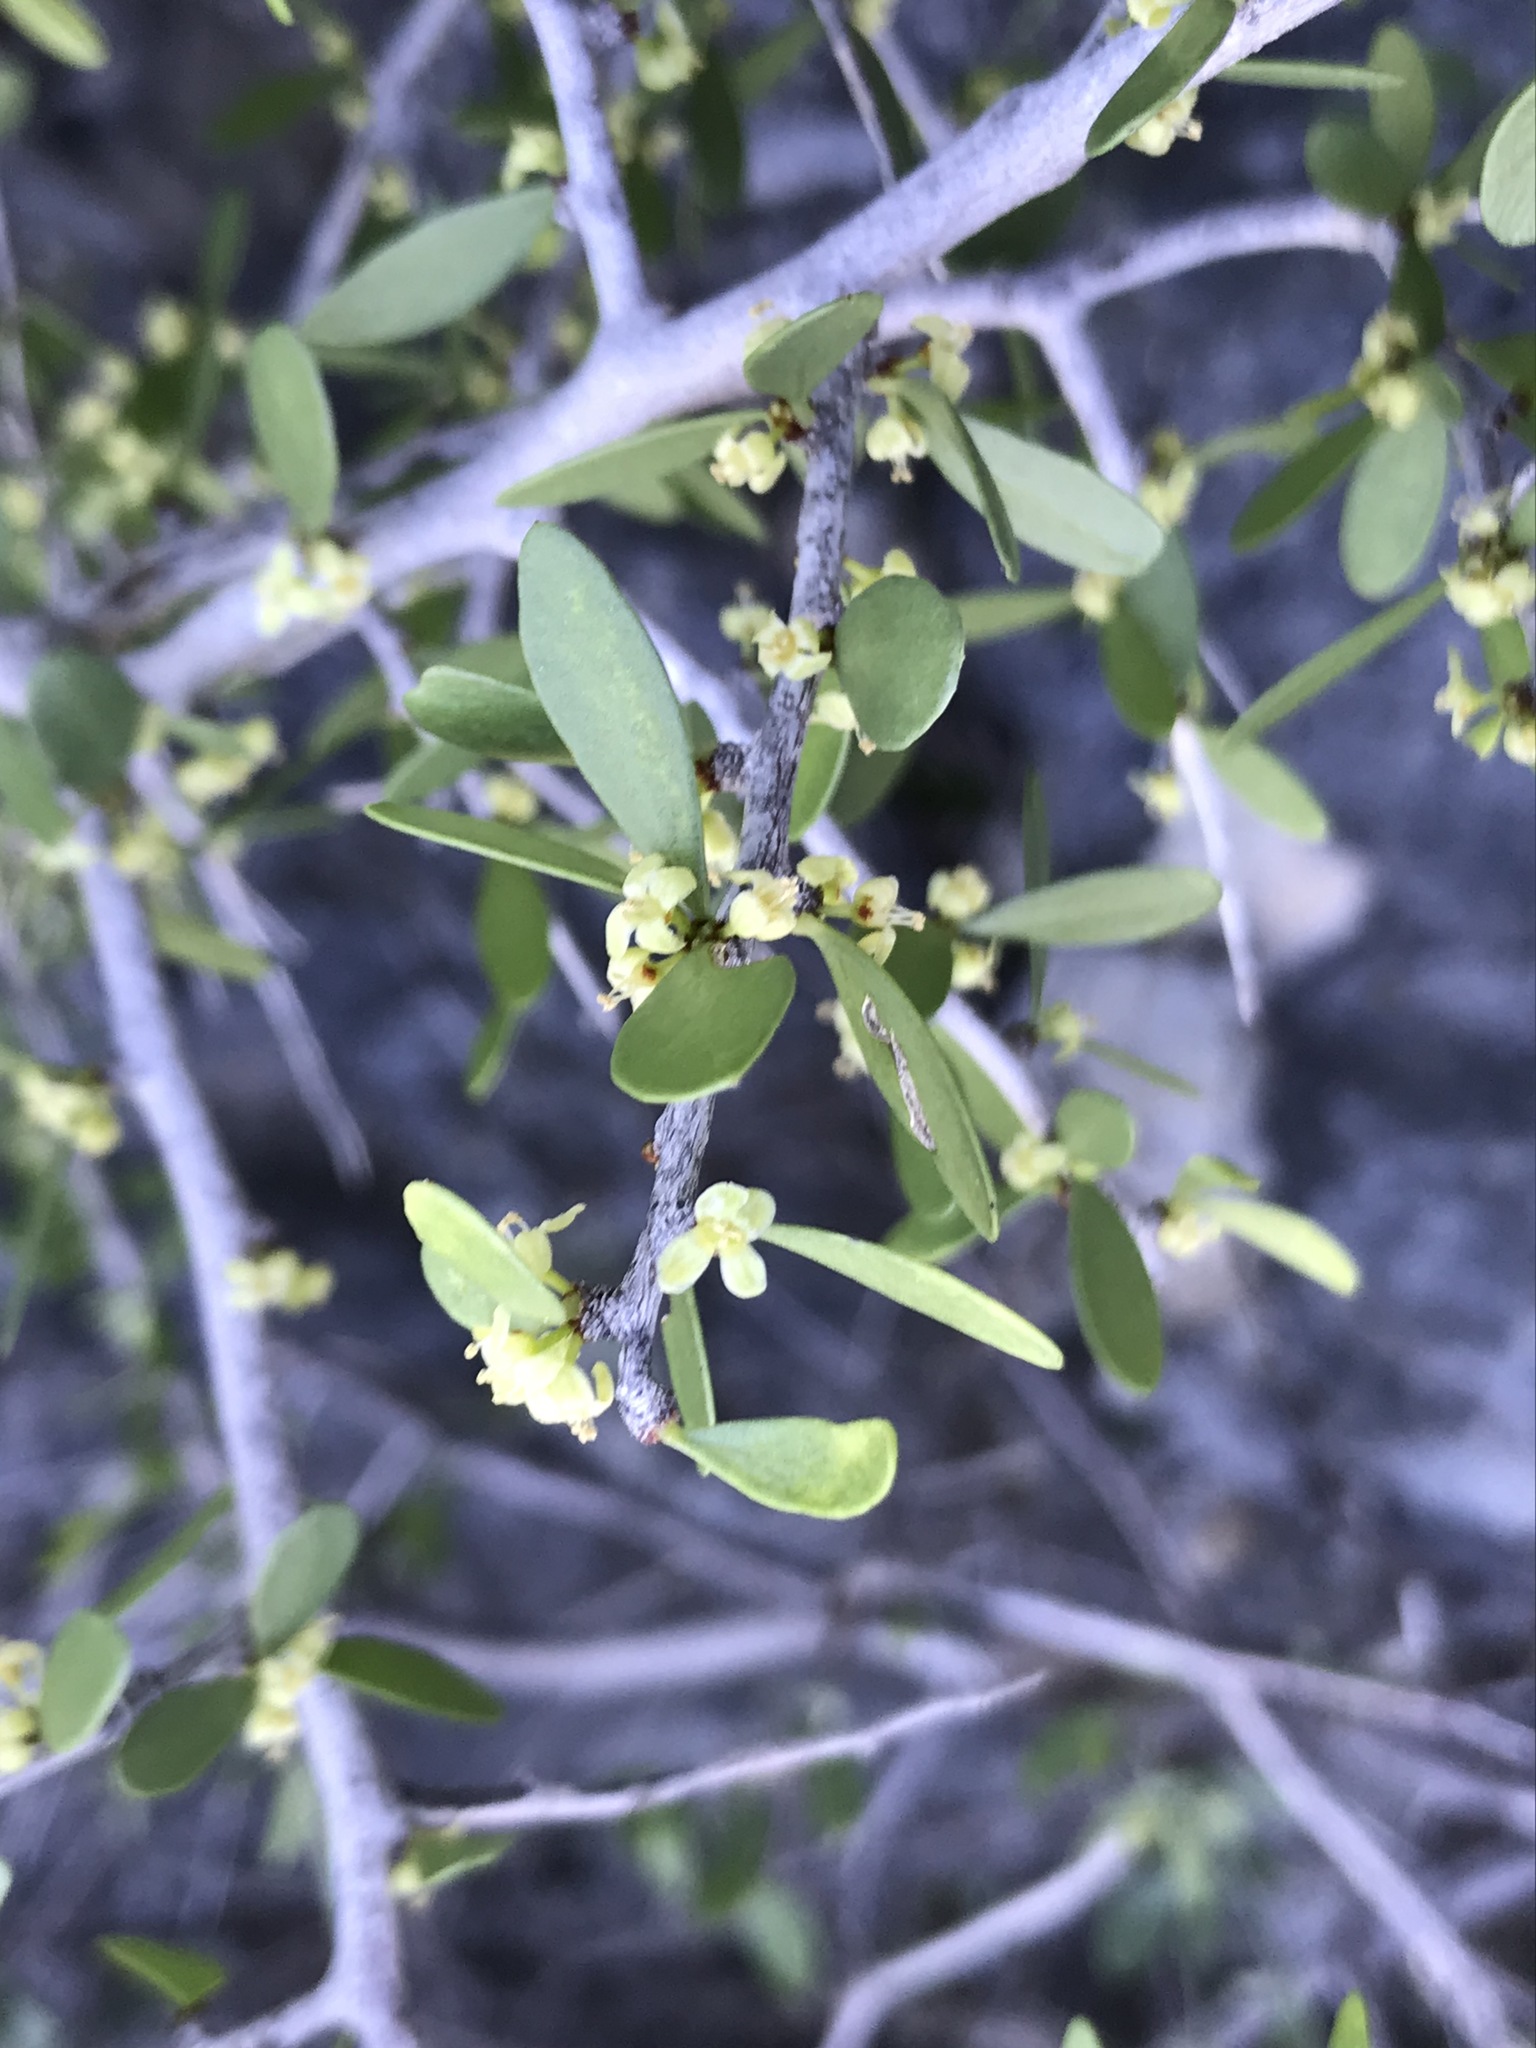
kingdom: Plantae
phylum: Tracheophyta
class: Magnoliopsida
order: Celastrales
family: Celastraceae
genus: Schaefferia
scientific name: Schaefferia cuneifolia
